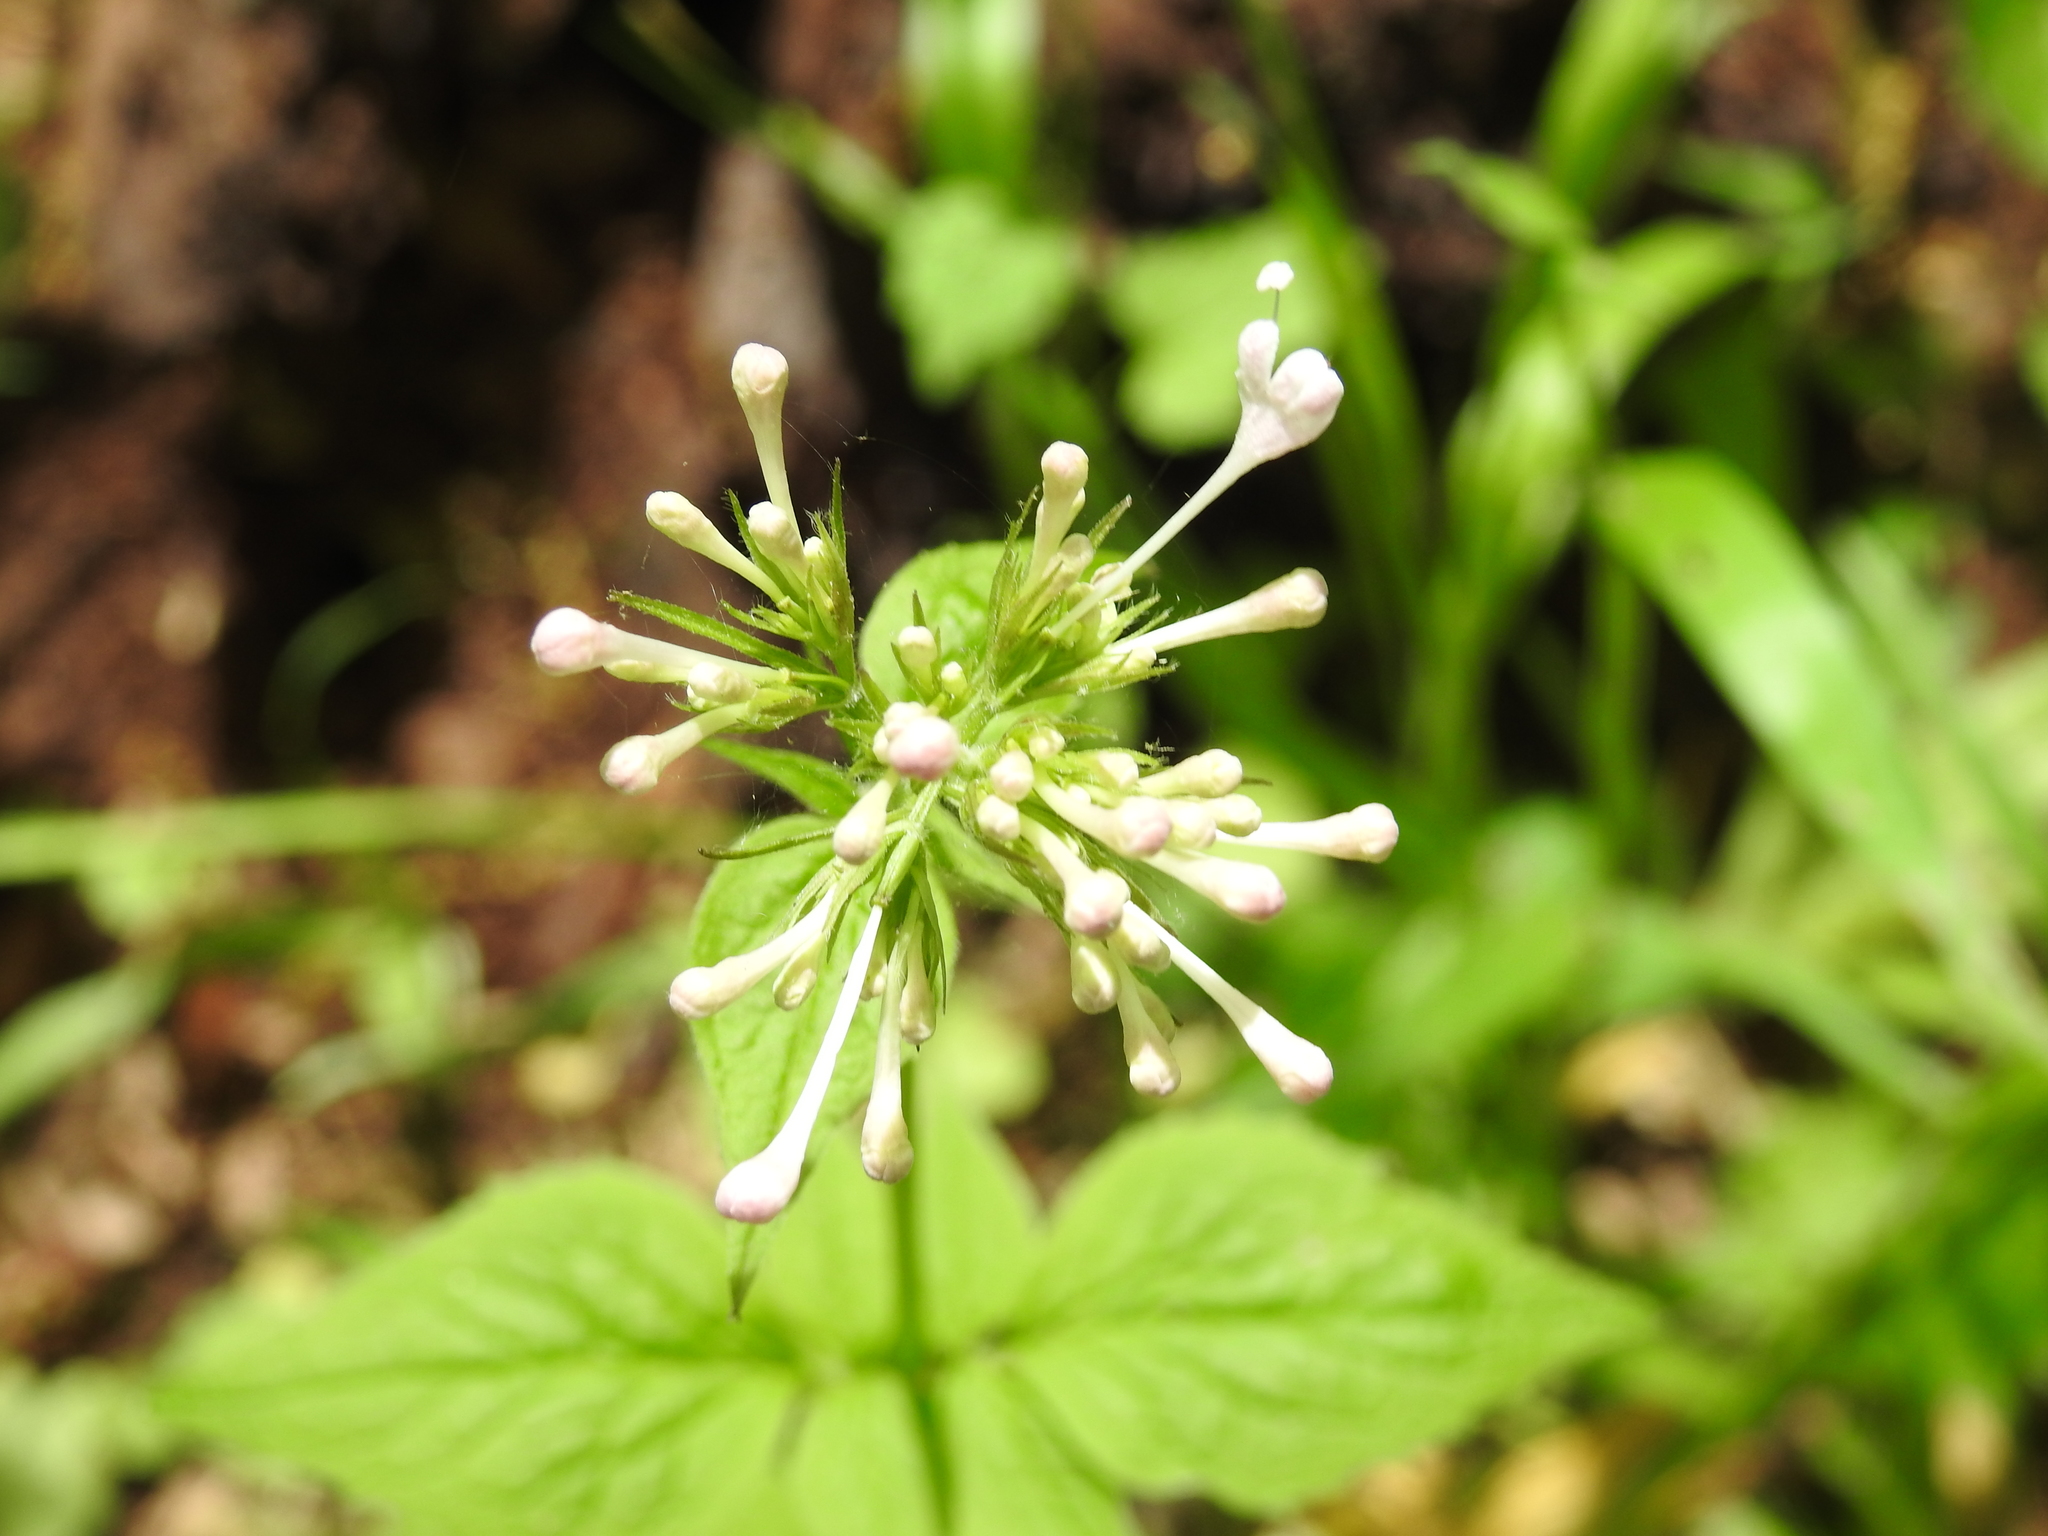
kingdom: Plantae
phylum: Tracheophyta
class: Magnoliopsida
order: Dipsacales
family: Caprifoliaceae
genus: Valeriana
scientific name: Valeriana pauciflora
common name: Long-tube valeriana
